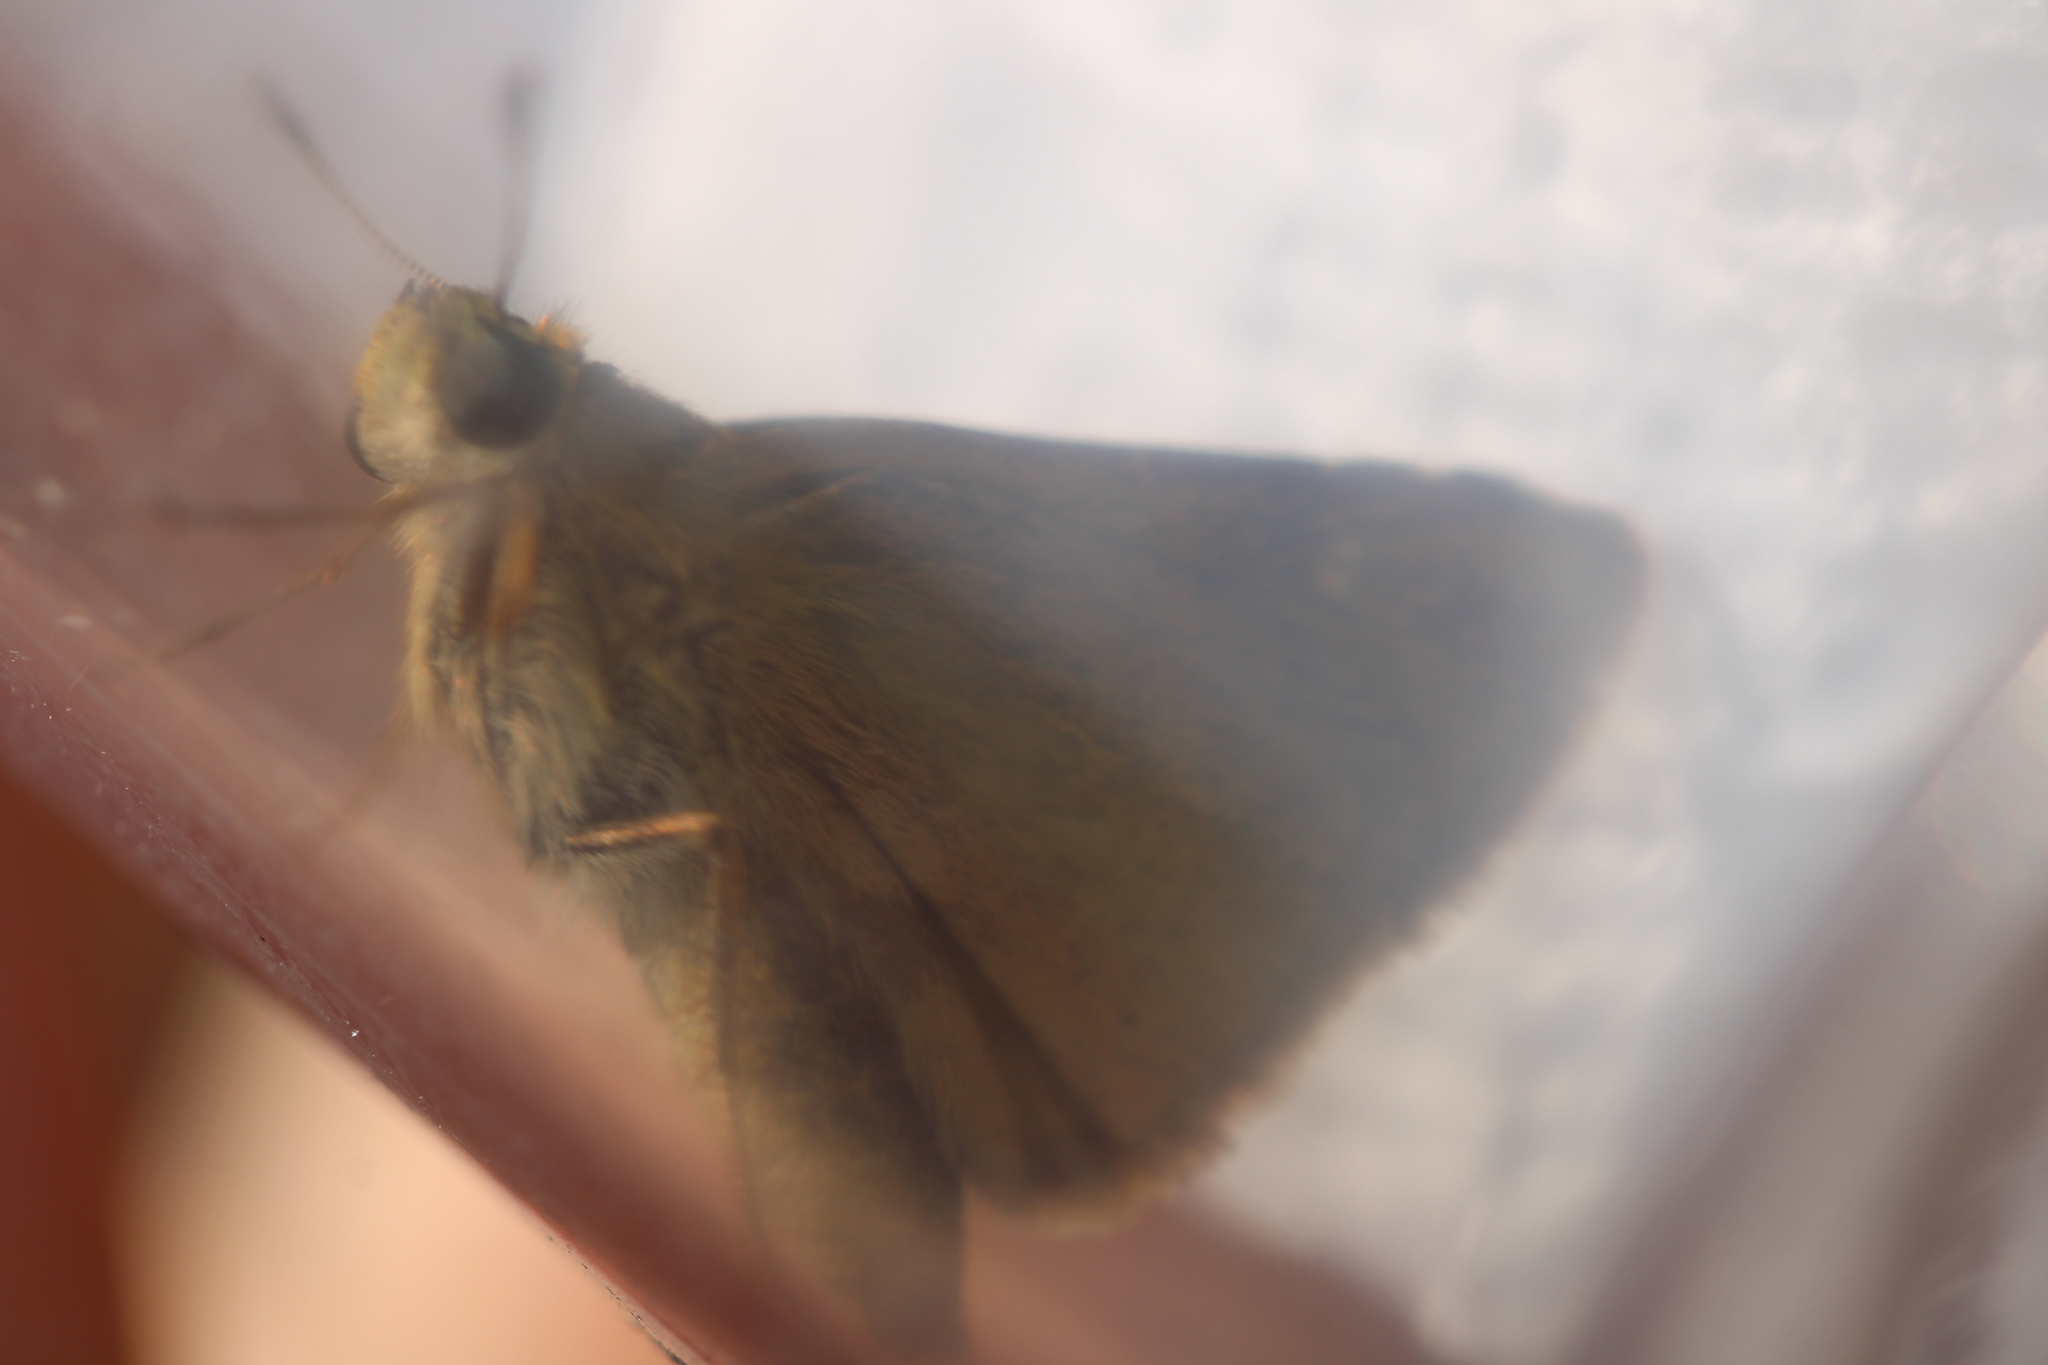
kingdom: Animalia
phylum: Arthropoda
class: Insecta
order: Lepidoptera
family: Hesperiidae
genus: Polites
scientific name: Polites themistocles
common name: Tawny-edged skipper
